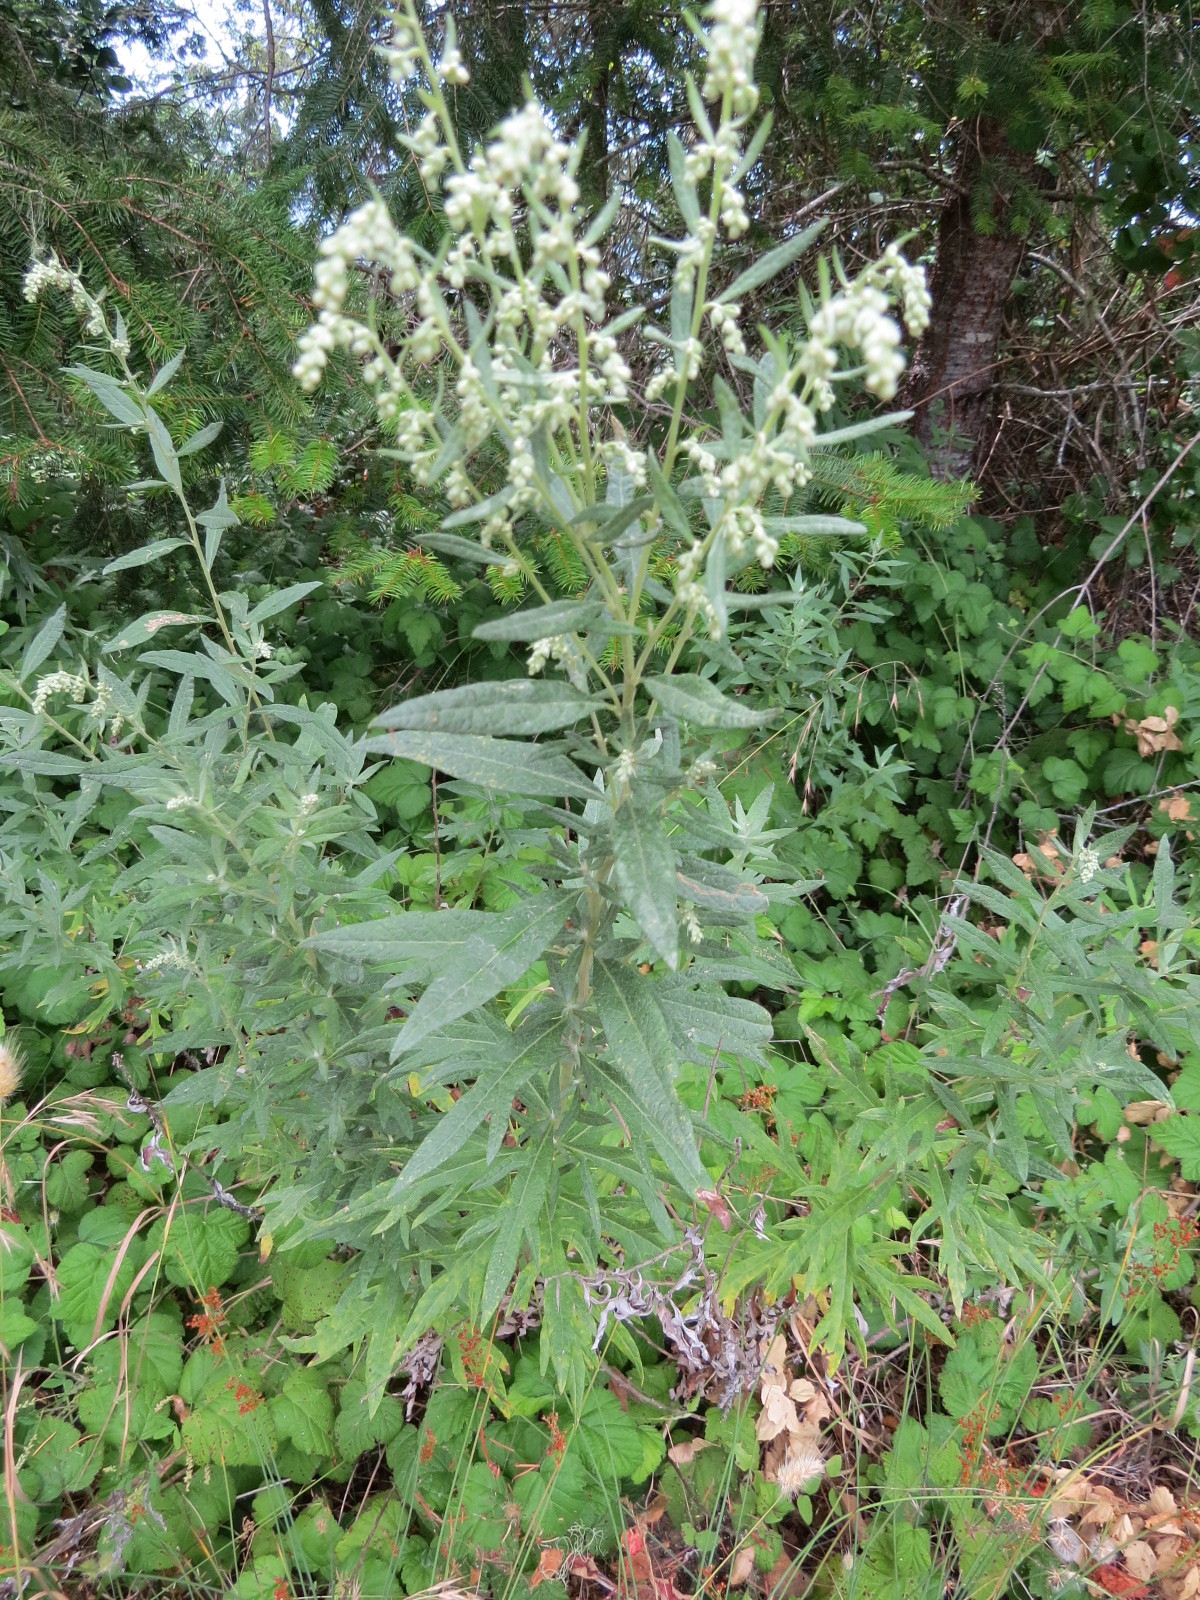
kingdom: Plantae
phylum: Tracheophyta
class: Magnoliopsida
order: Asterales
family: Asteraceae
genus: Artemisia
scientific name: Artemisia douglasiana
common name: Northwest mugwort
